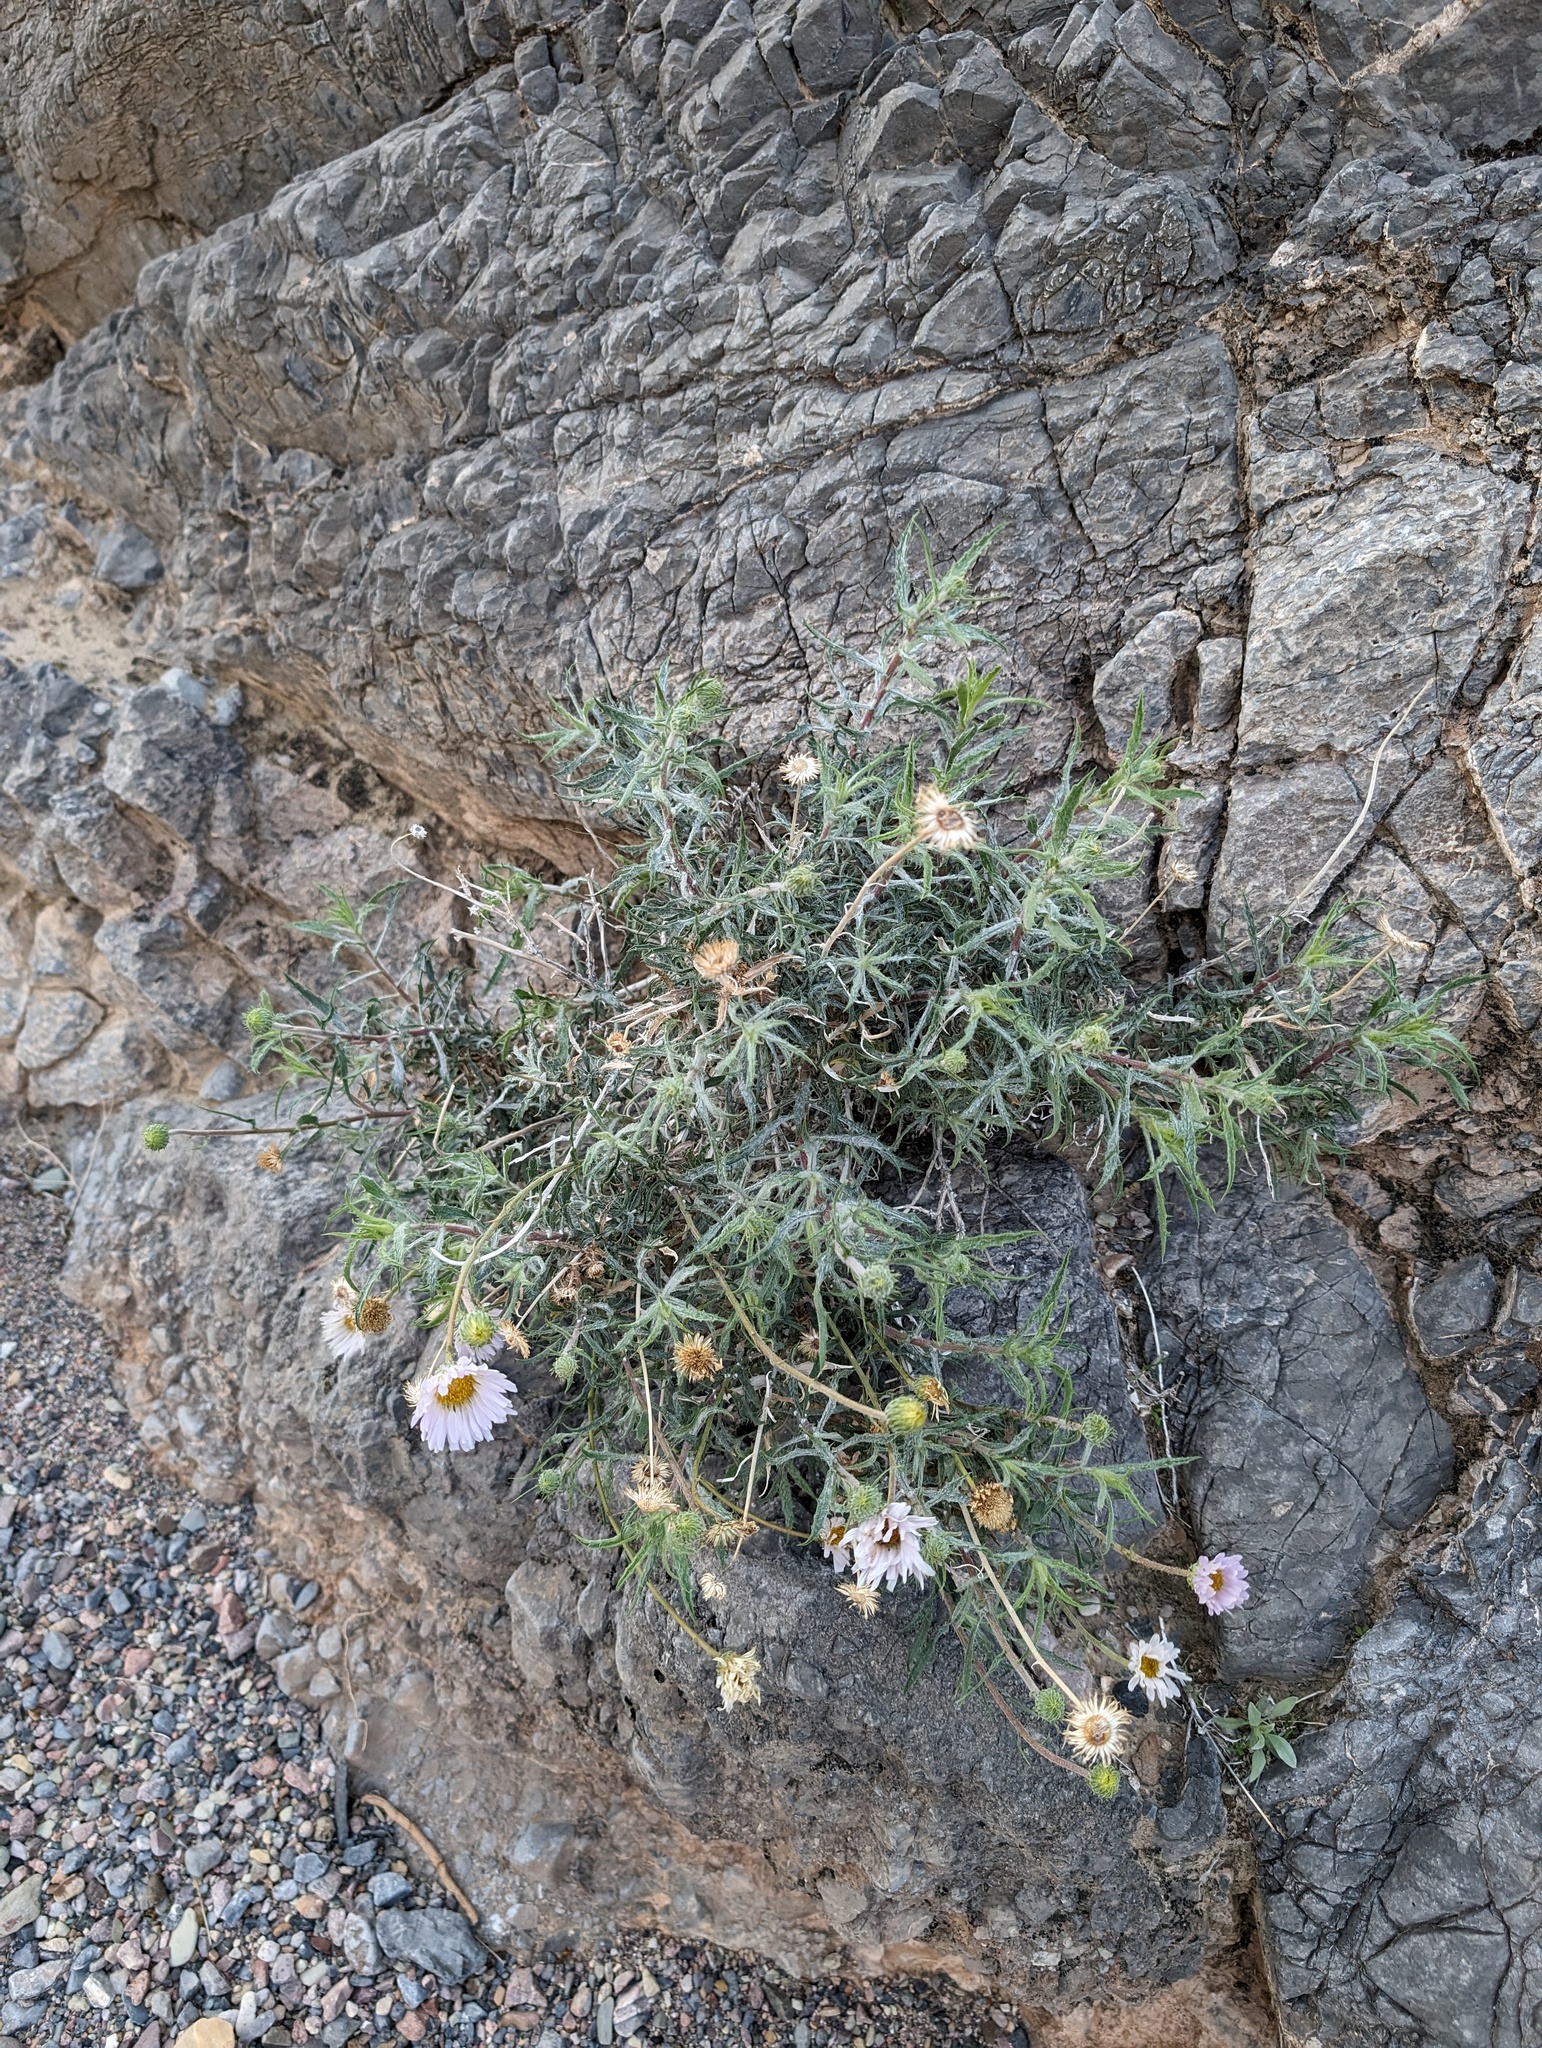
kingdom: Plantae
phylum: Tracheophyta
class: Magnoliopsida
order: Asterales
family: Asteraceae
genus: Xylorhiza
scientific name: Xylorhiza tortifolia
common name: Hurt-leaf woody-aster
